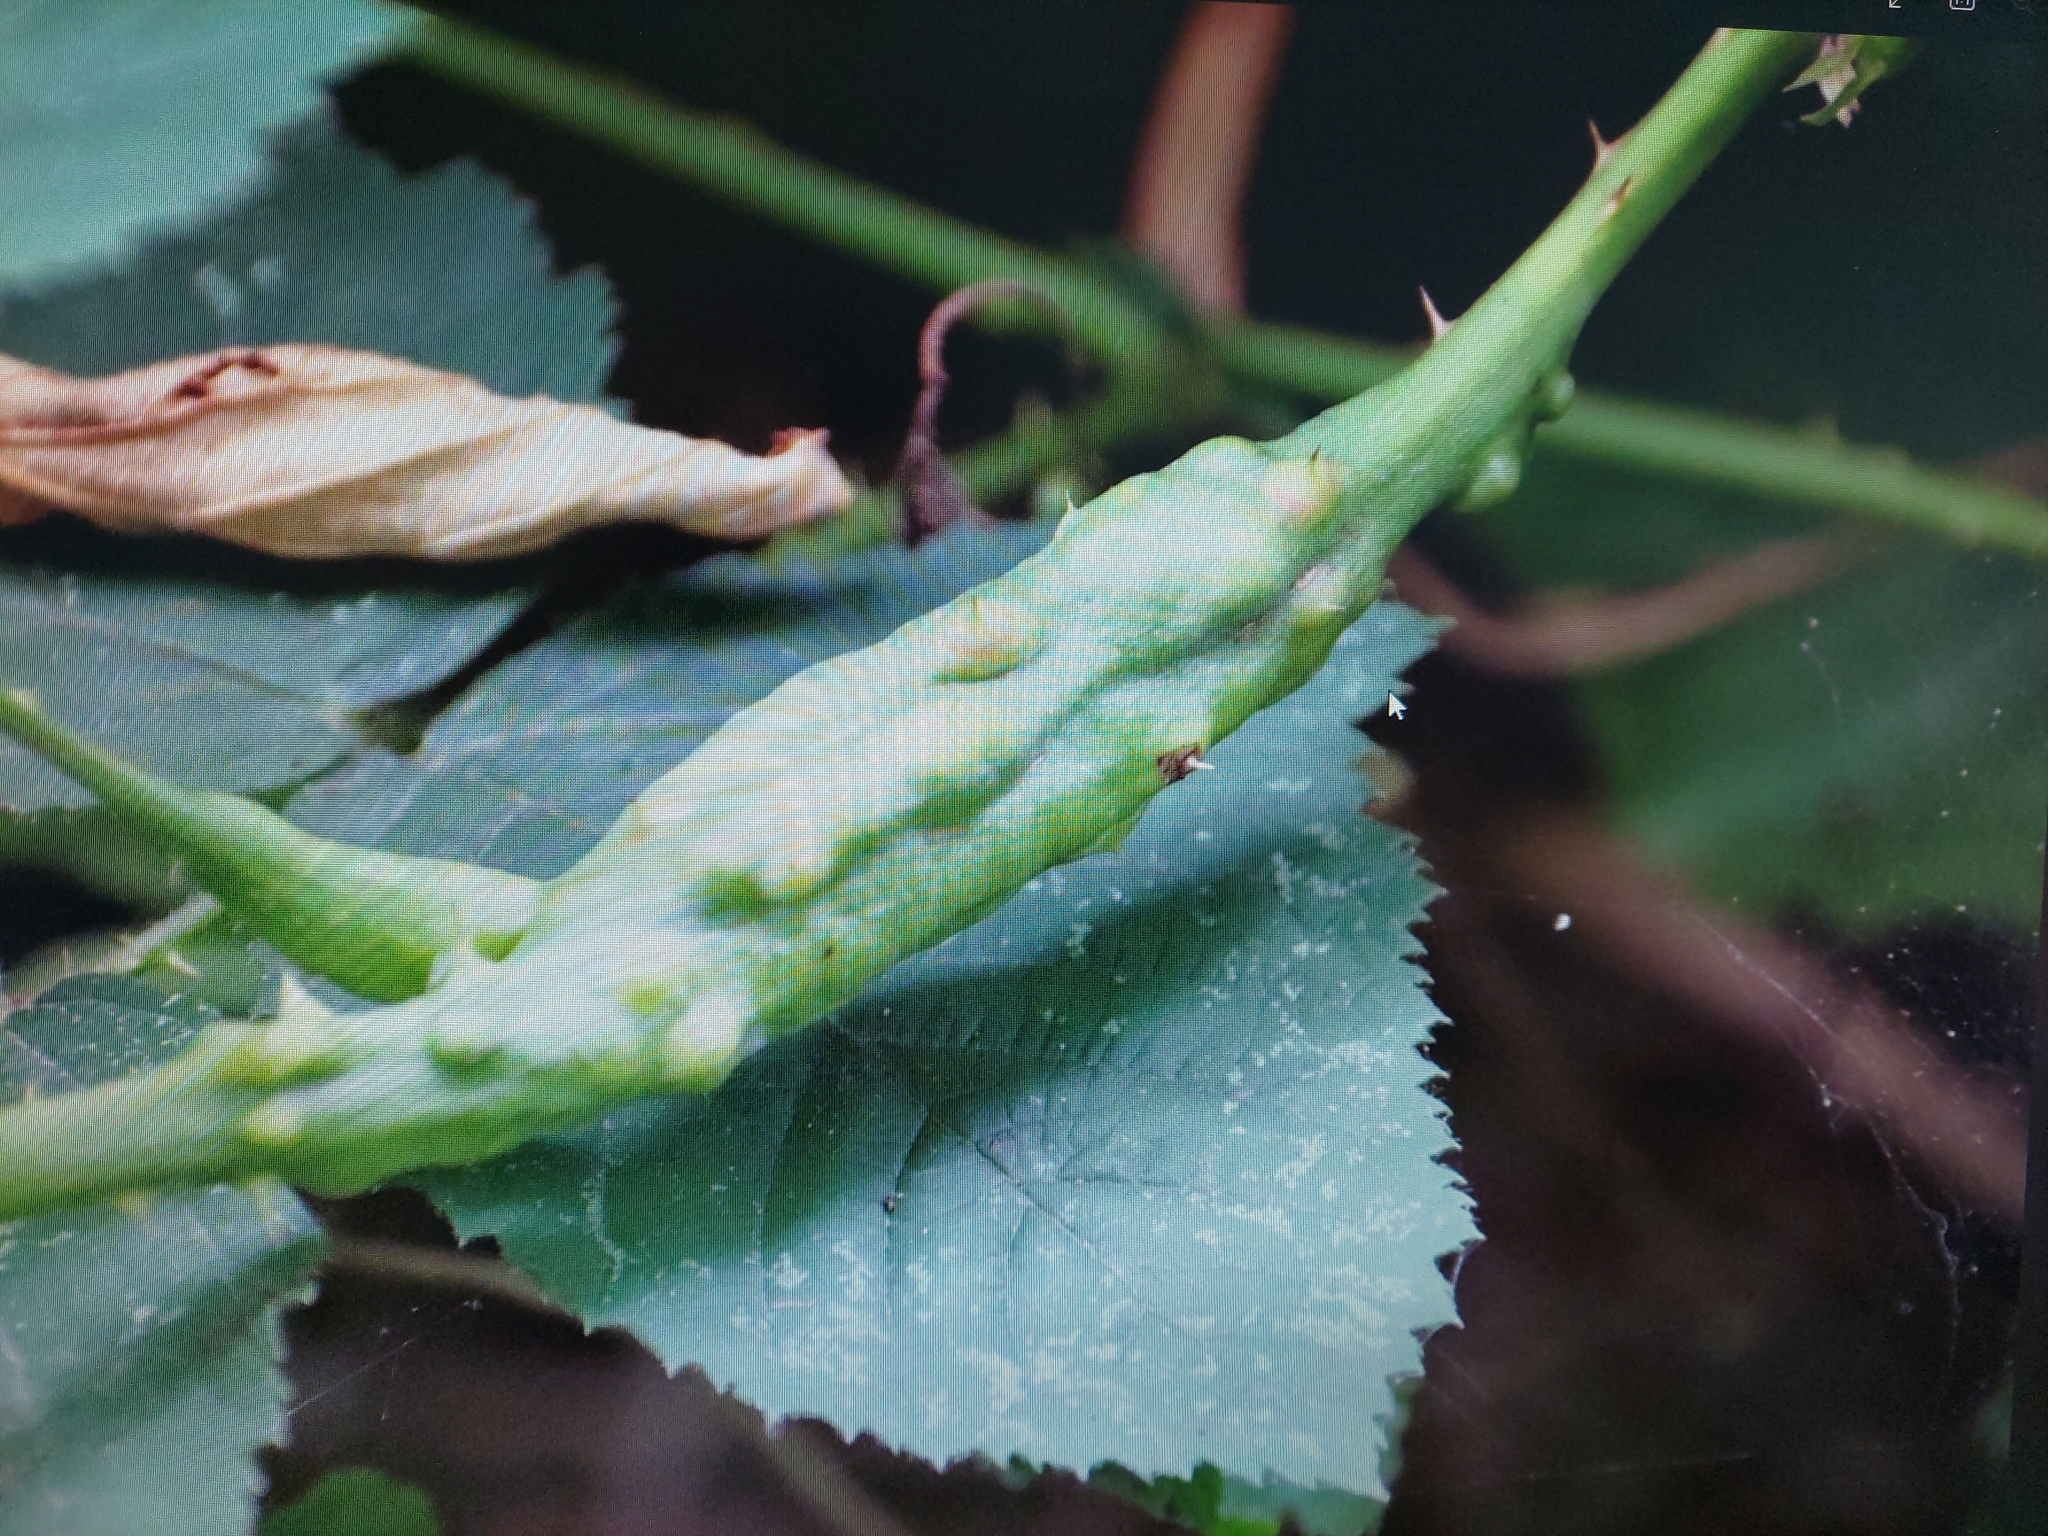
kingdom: Animalia
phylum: Arthropoda
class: Insecta
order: Hymenoptera
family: Cynipidae
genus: Diastrophus
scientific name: Diastrophus rubi
